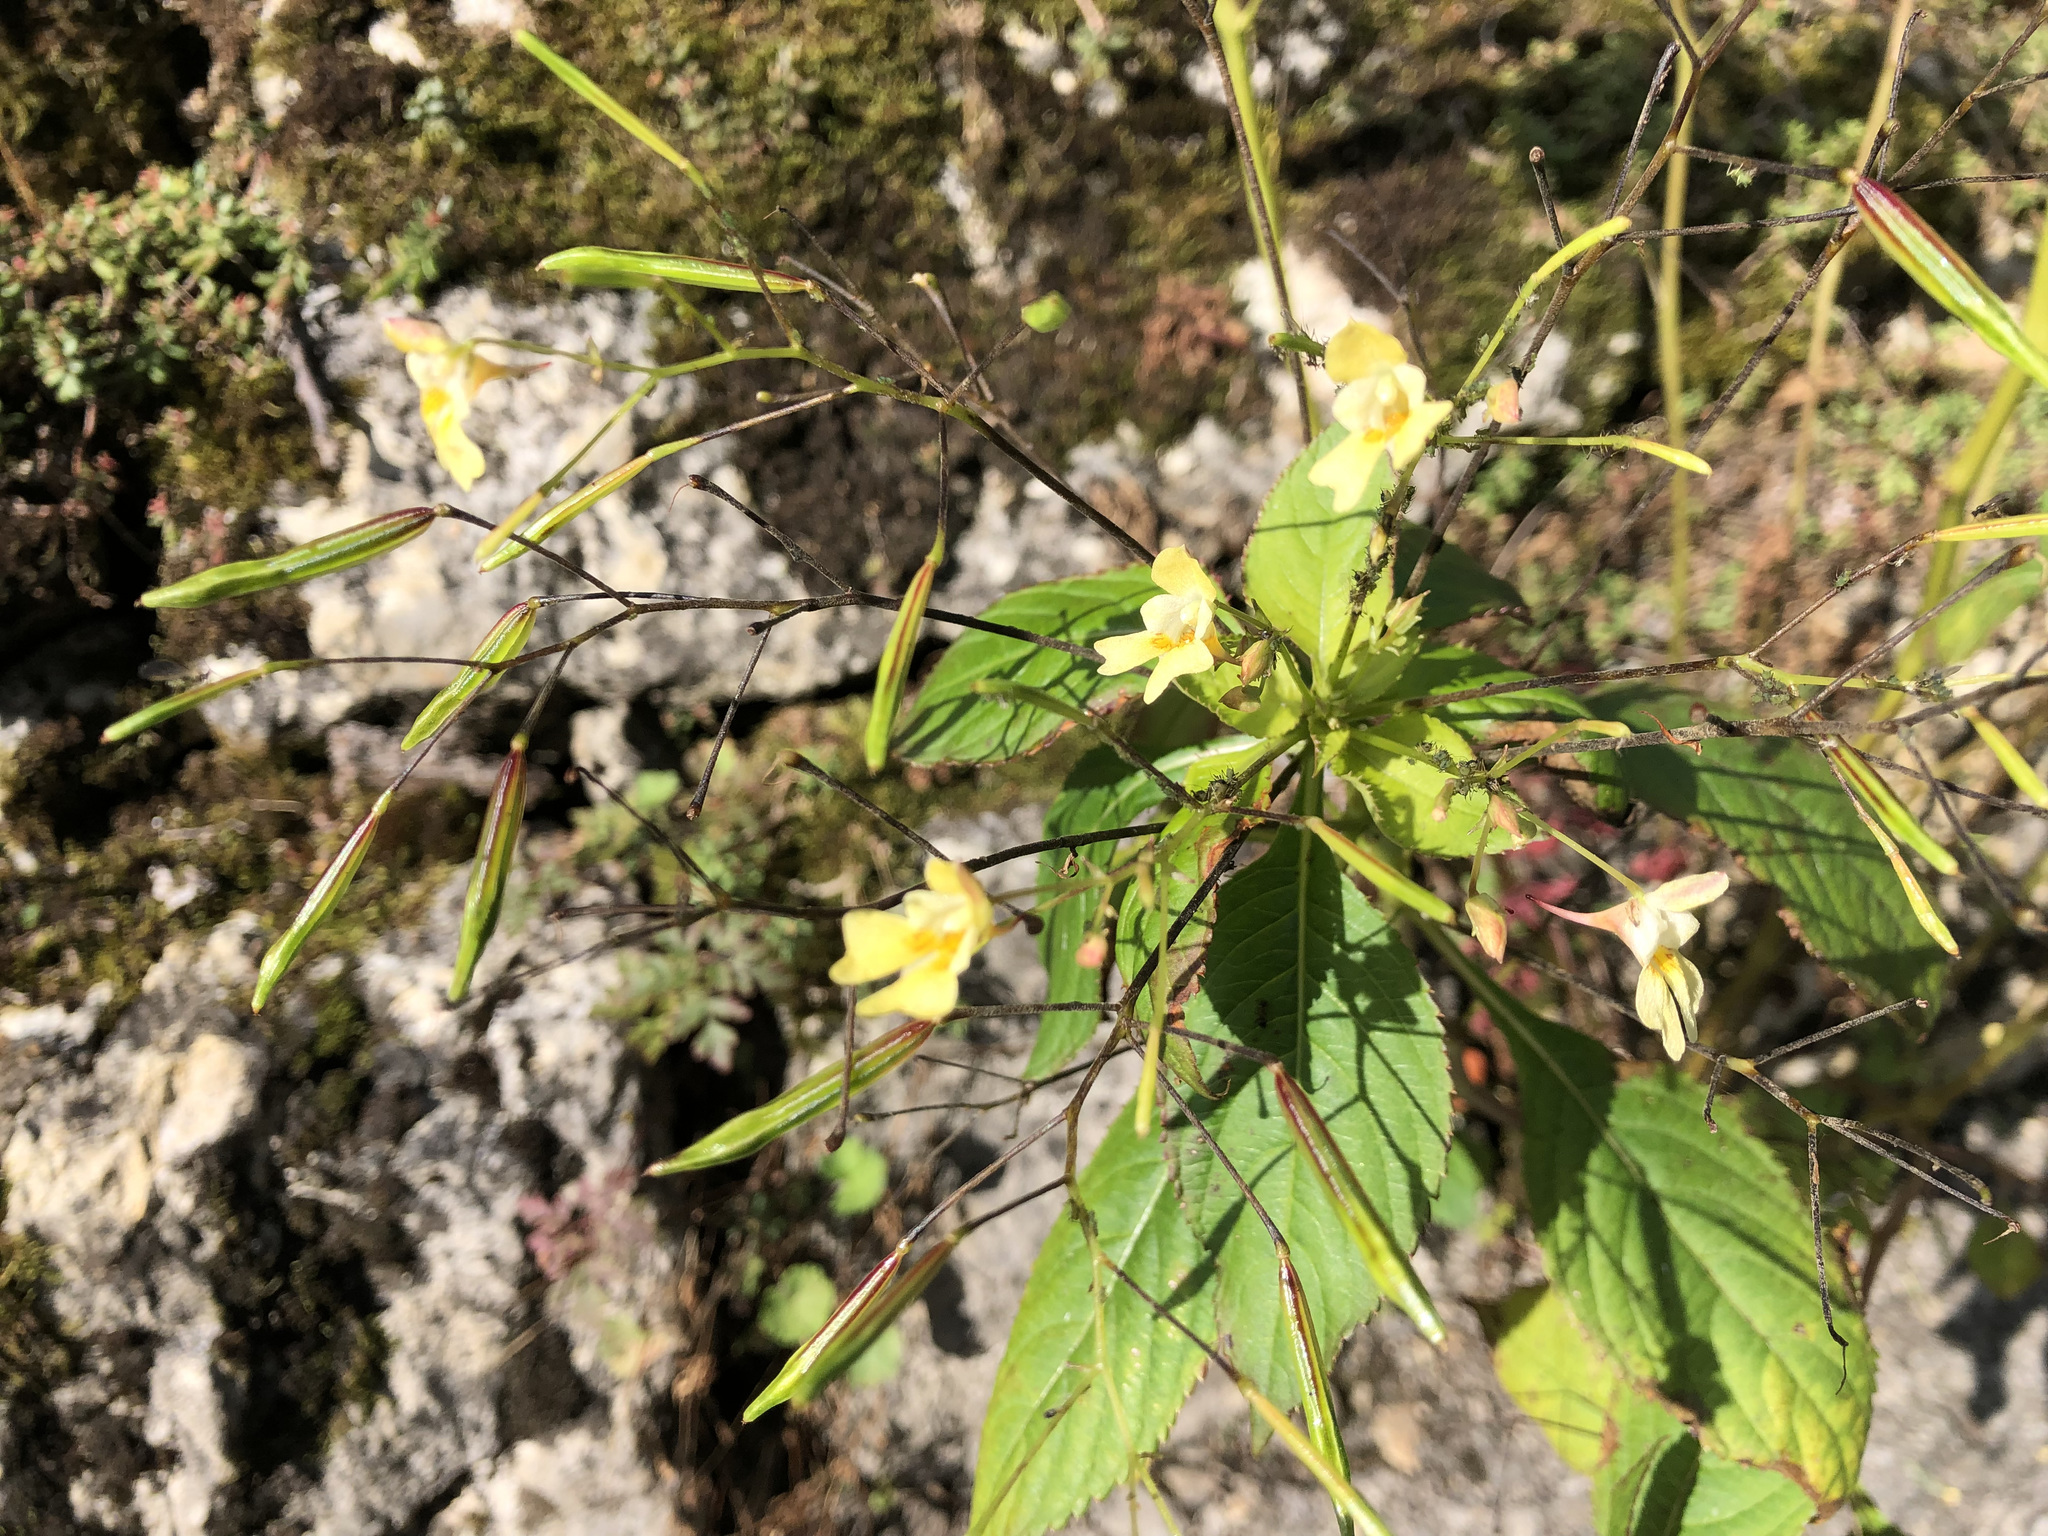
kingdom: Plantae
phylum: Tracheophyta
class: Magnoliopsida
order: Ericales
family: Balsaminaceae
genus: Impatiens
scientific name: Impatiens parviflora
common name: Small balsam
